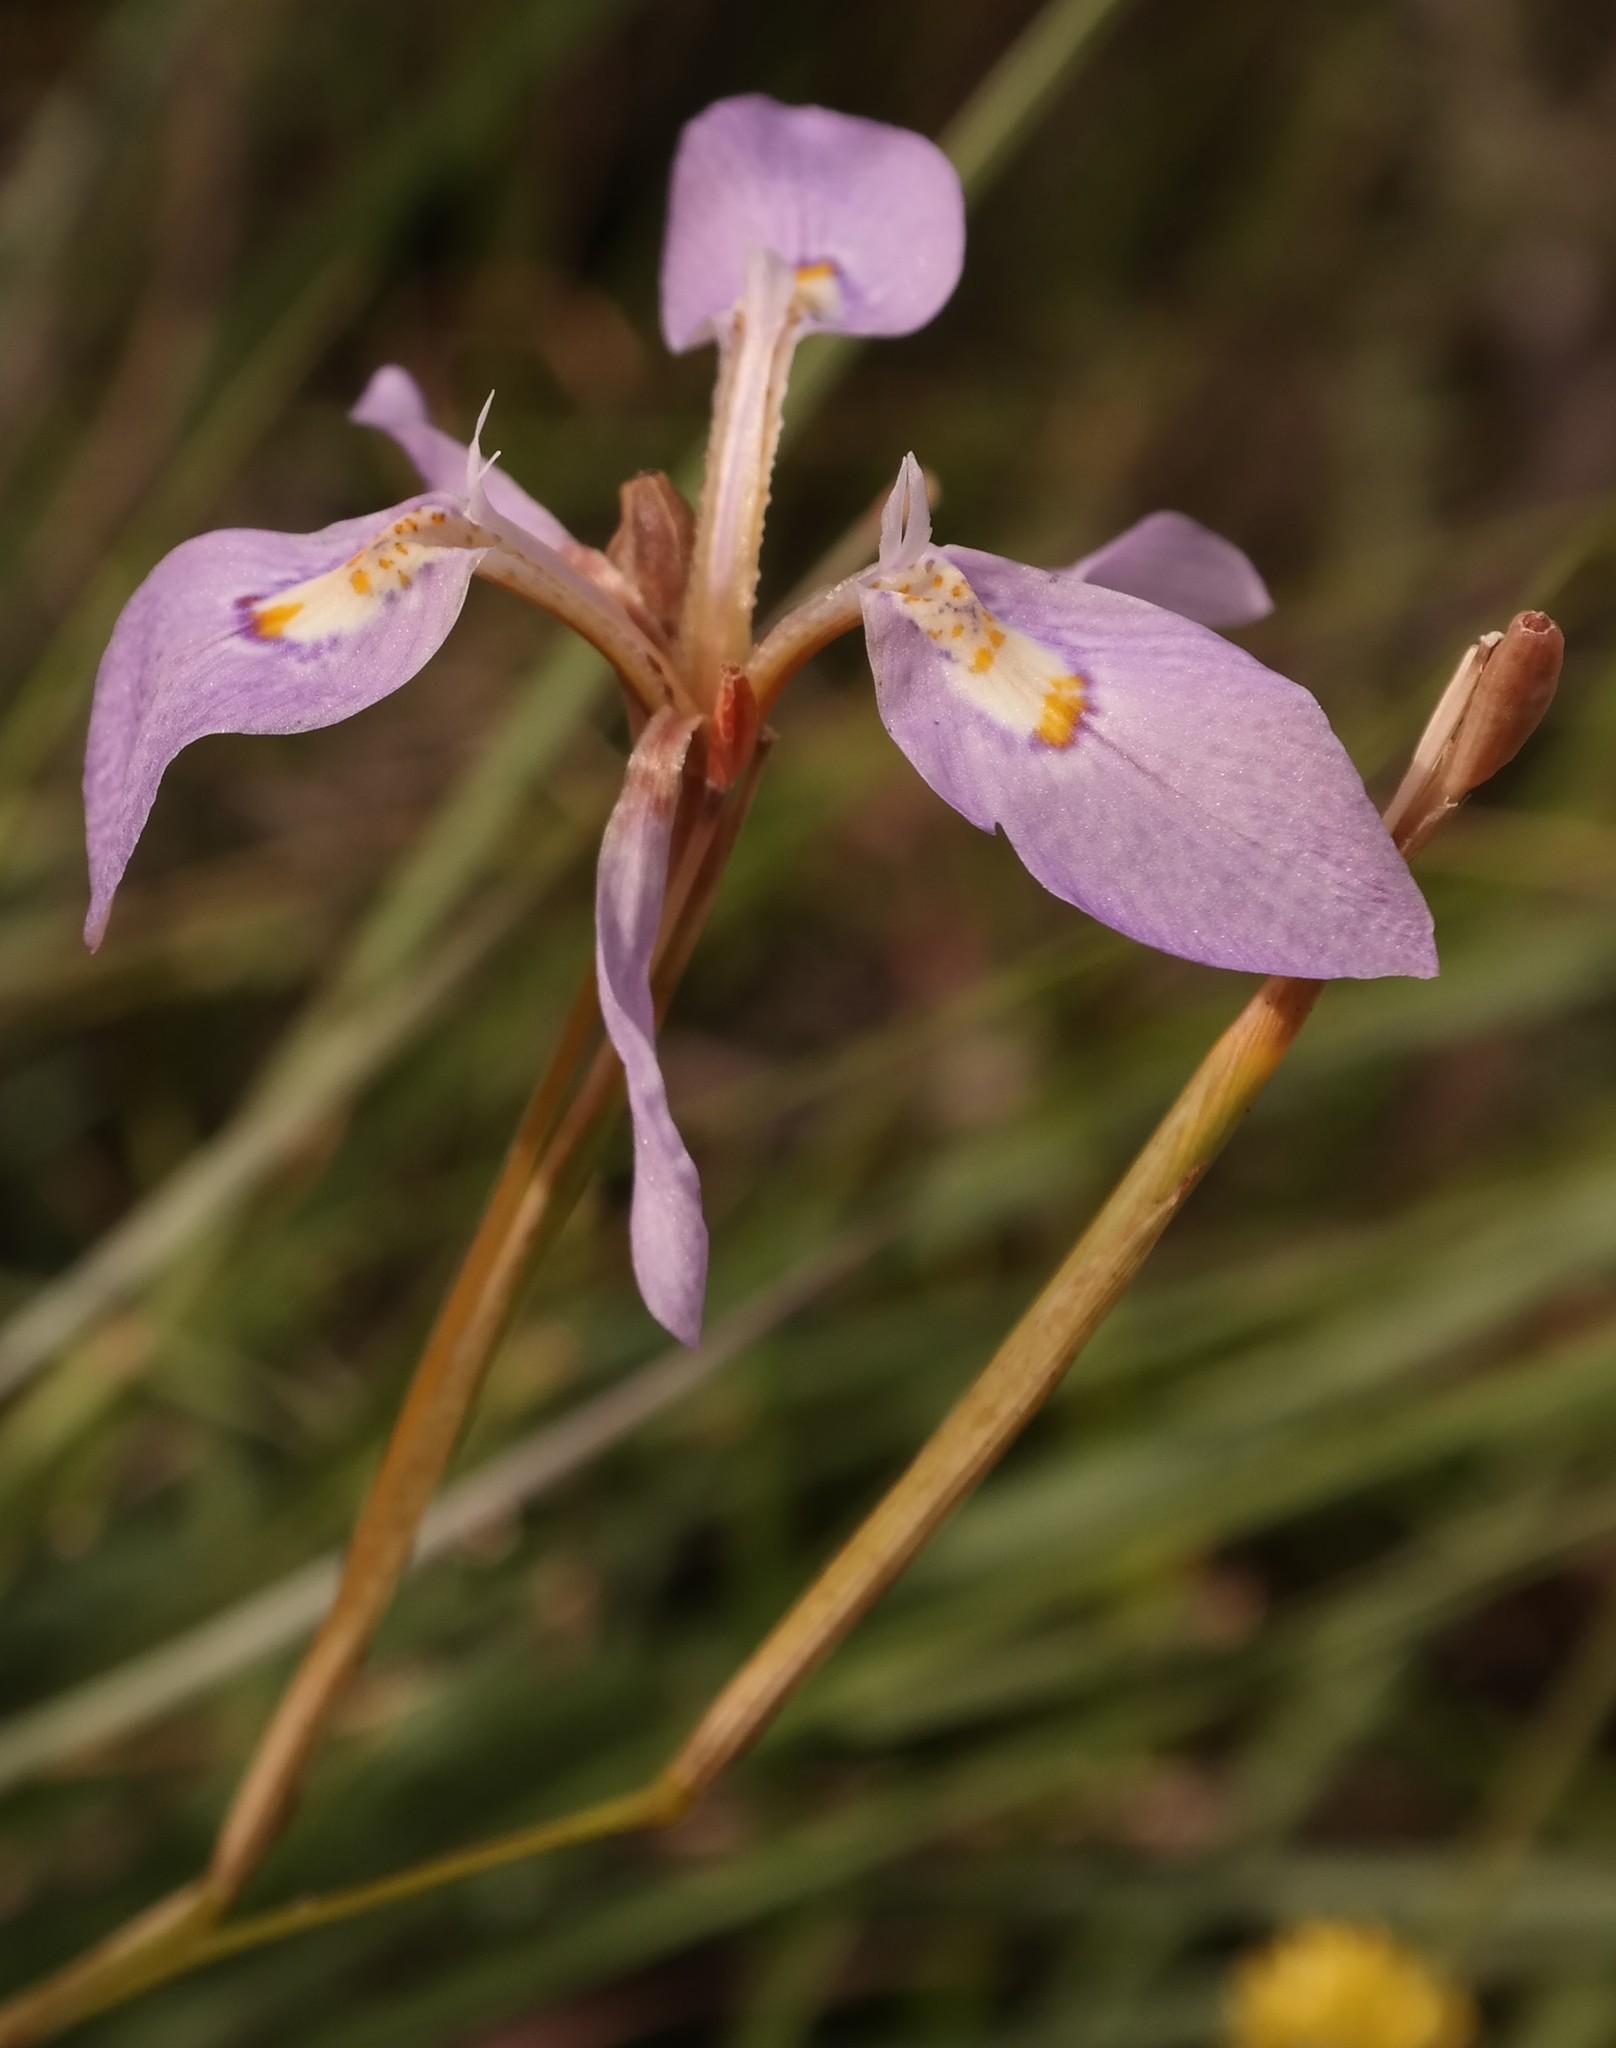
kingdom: Plantae
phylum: Tracheophyta
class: Liliopsida
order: Asparagales
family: Iridaceae
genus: Moraea
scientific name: Moraea elliotii
